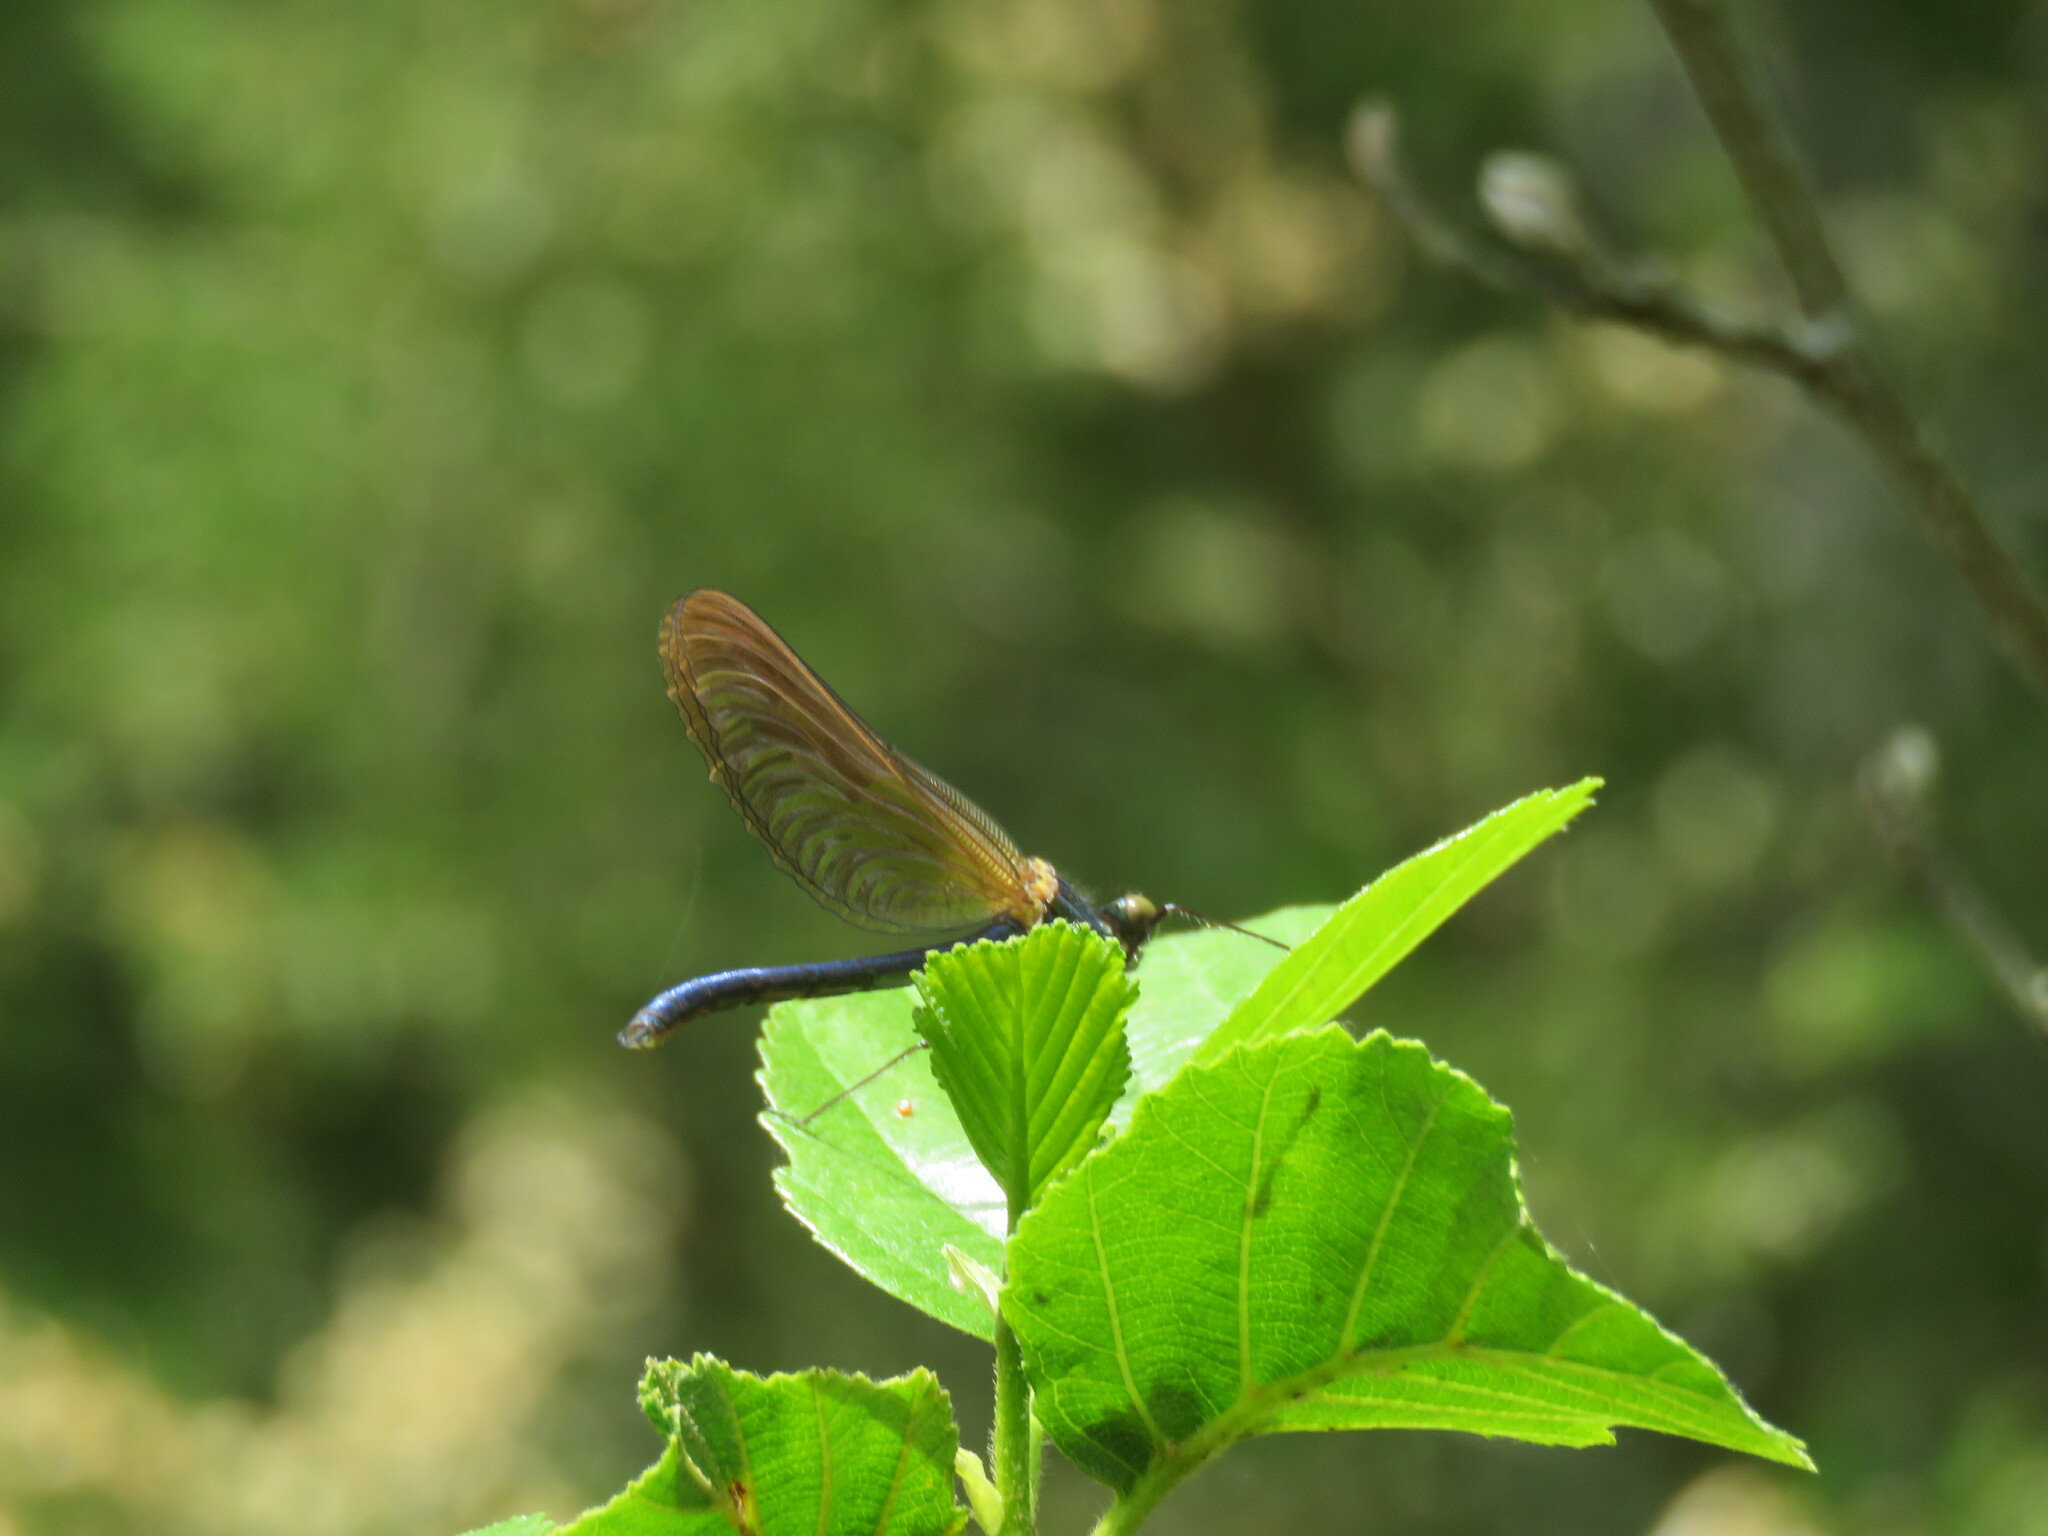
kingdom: Animalia
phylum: Arthropoda
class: Insecta
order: Odonata
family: Calopterygidae
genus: Calopteryx
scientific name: Calopteryx virgo
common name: Beautiful demoiselle
